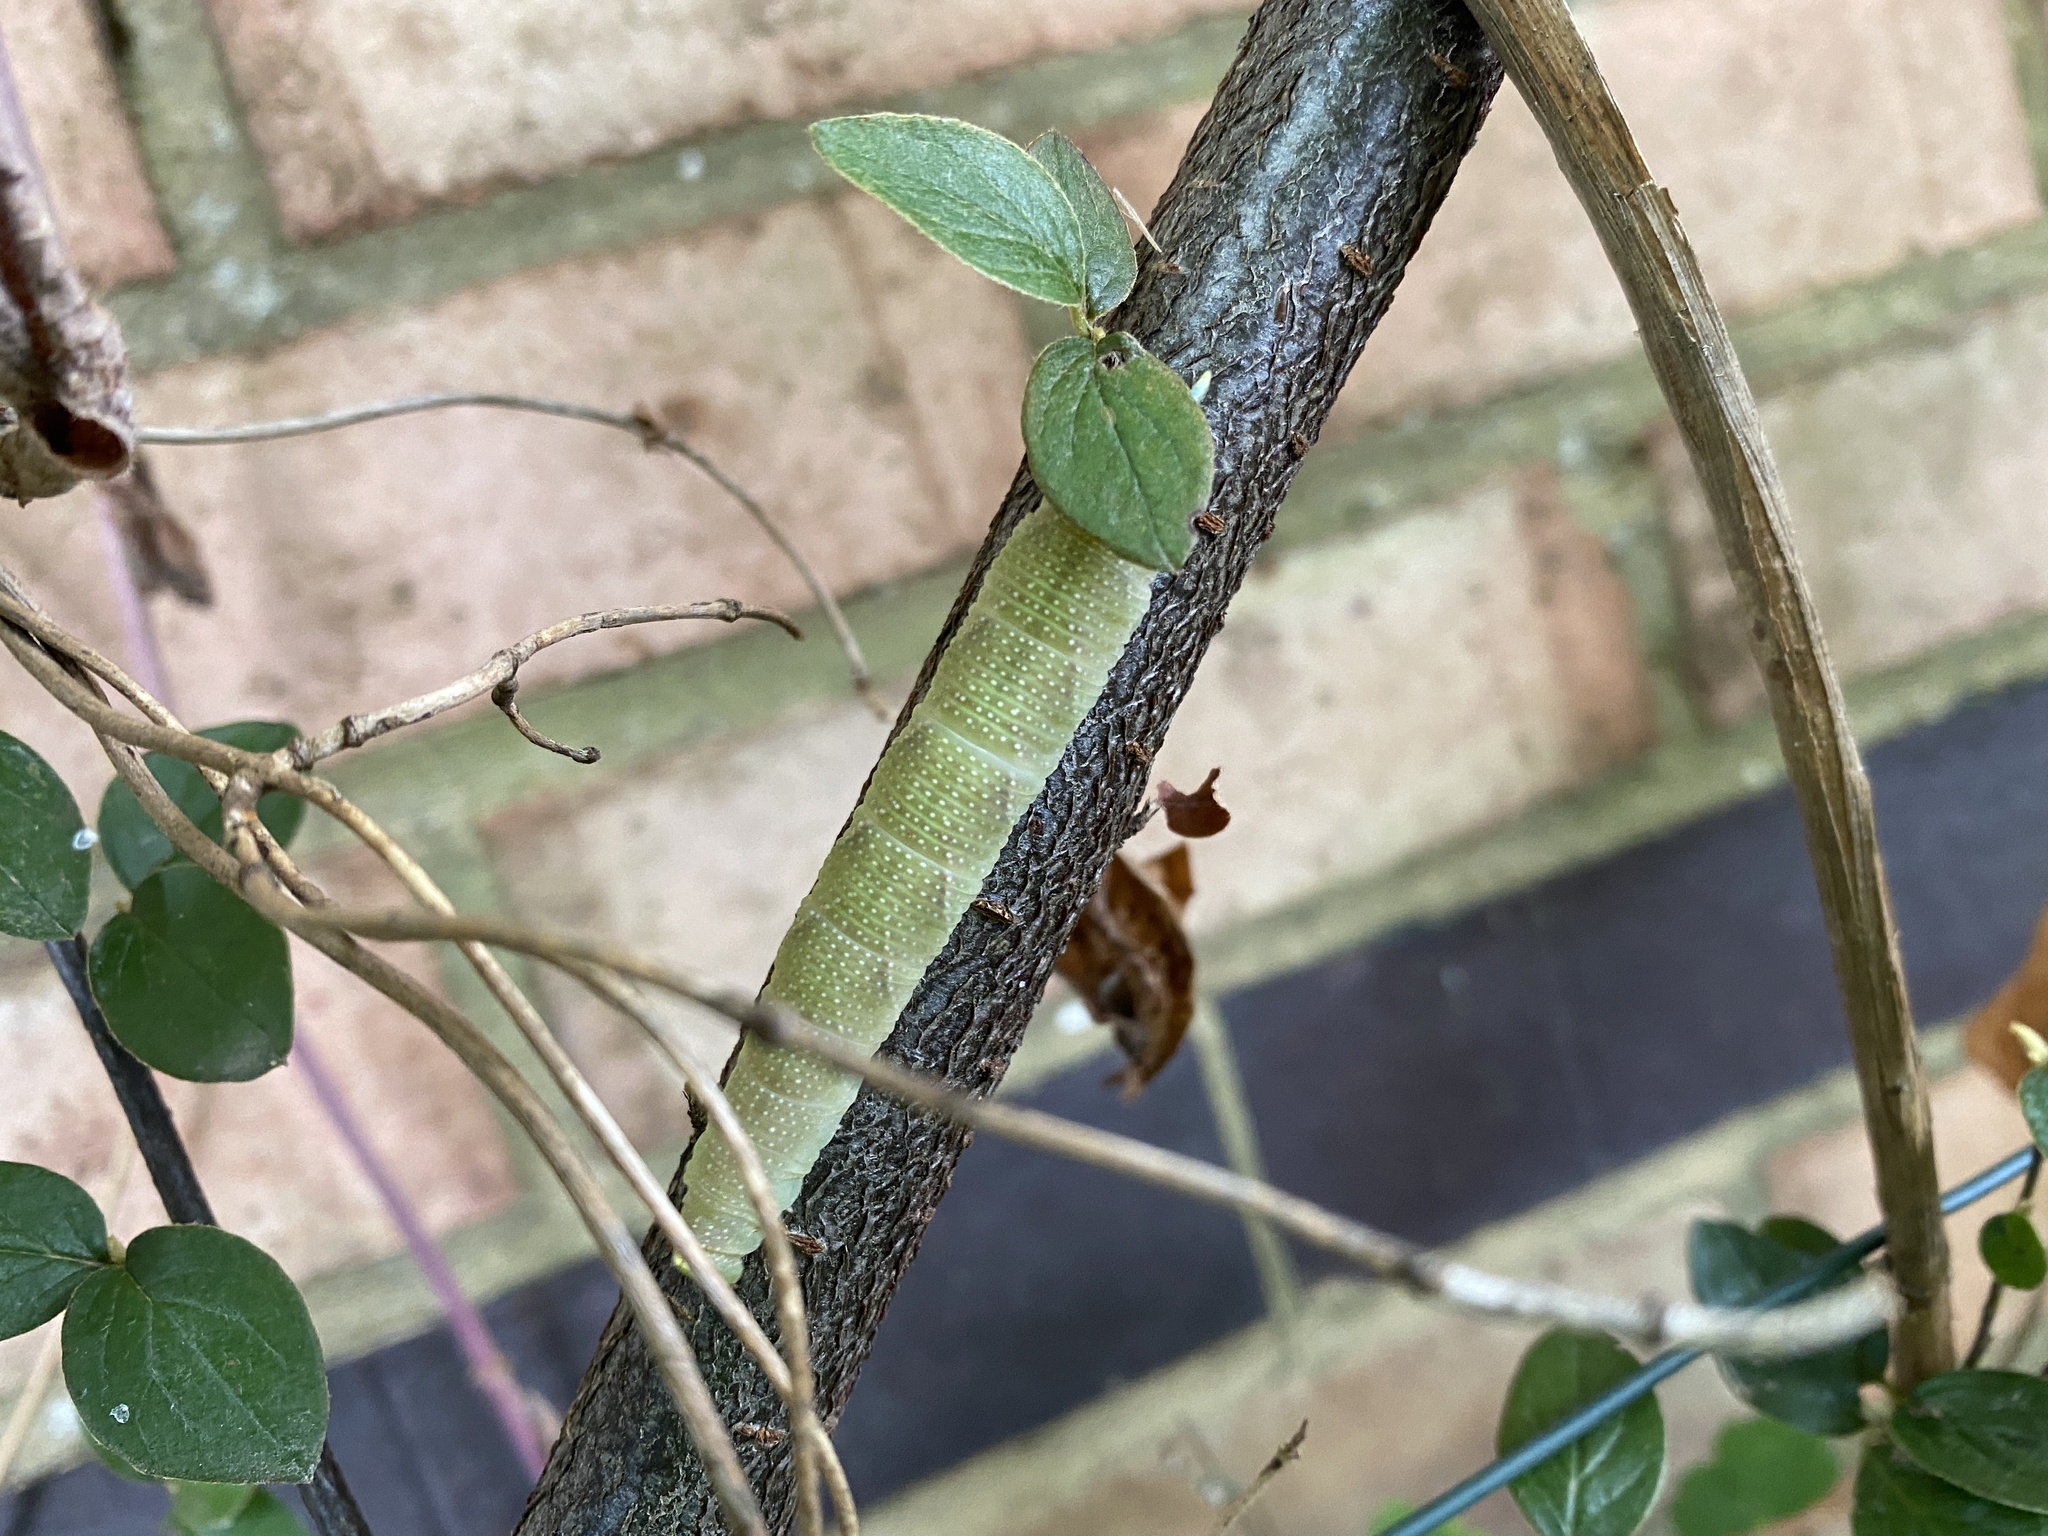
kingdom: Animalia
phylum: Arthropoda
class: Insecta
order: Lepidoptera
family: Sphingidae
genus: Mimas
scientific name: Mimas tiliae
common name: Lime hawk-moth
